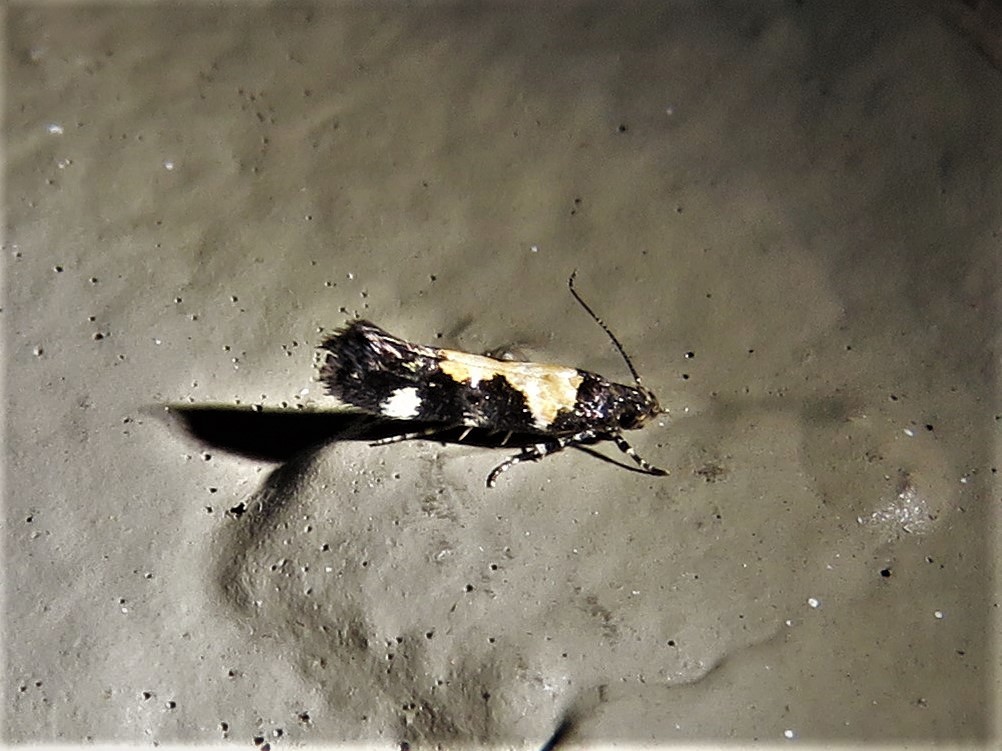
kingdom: Animalia
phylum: Arthropoda
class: Insecta
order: Lepidoptera
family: Gelechiidae
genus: Stegasta
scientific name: Stegasta bosqueella
